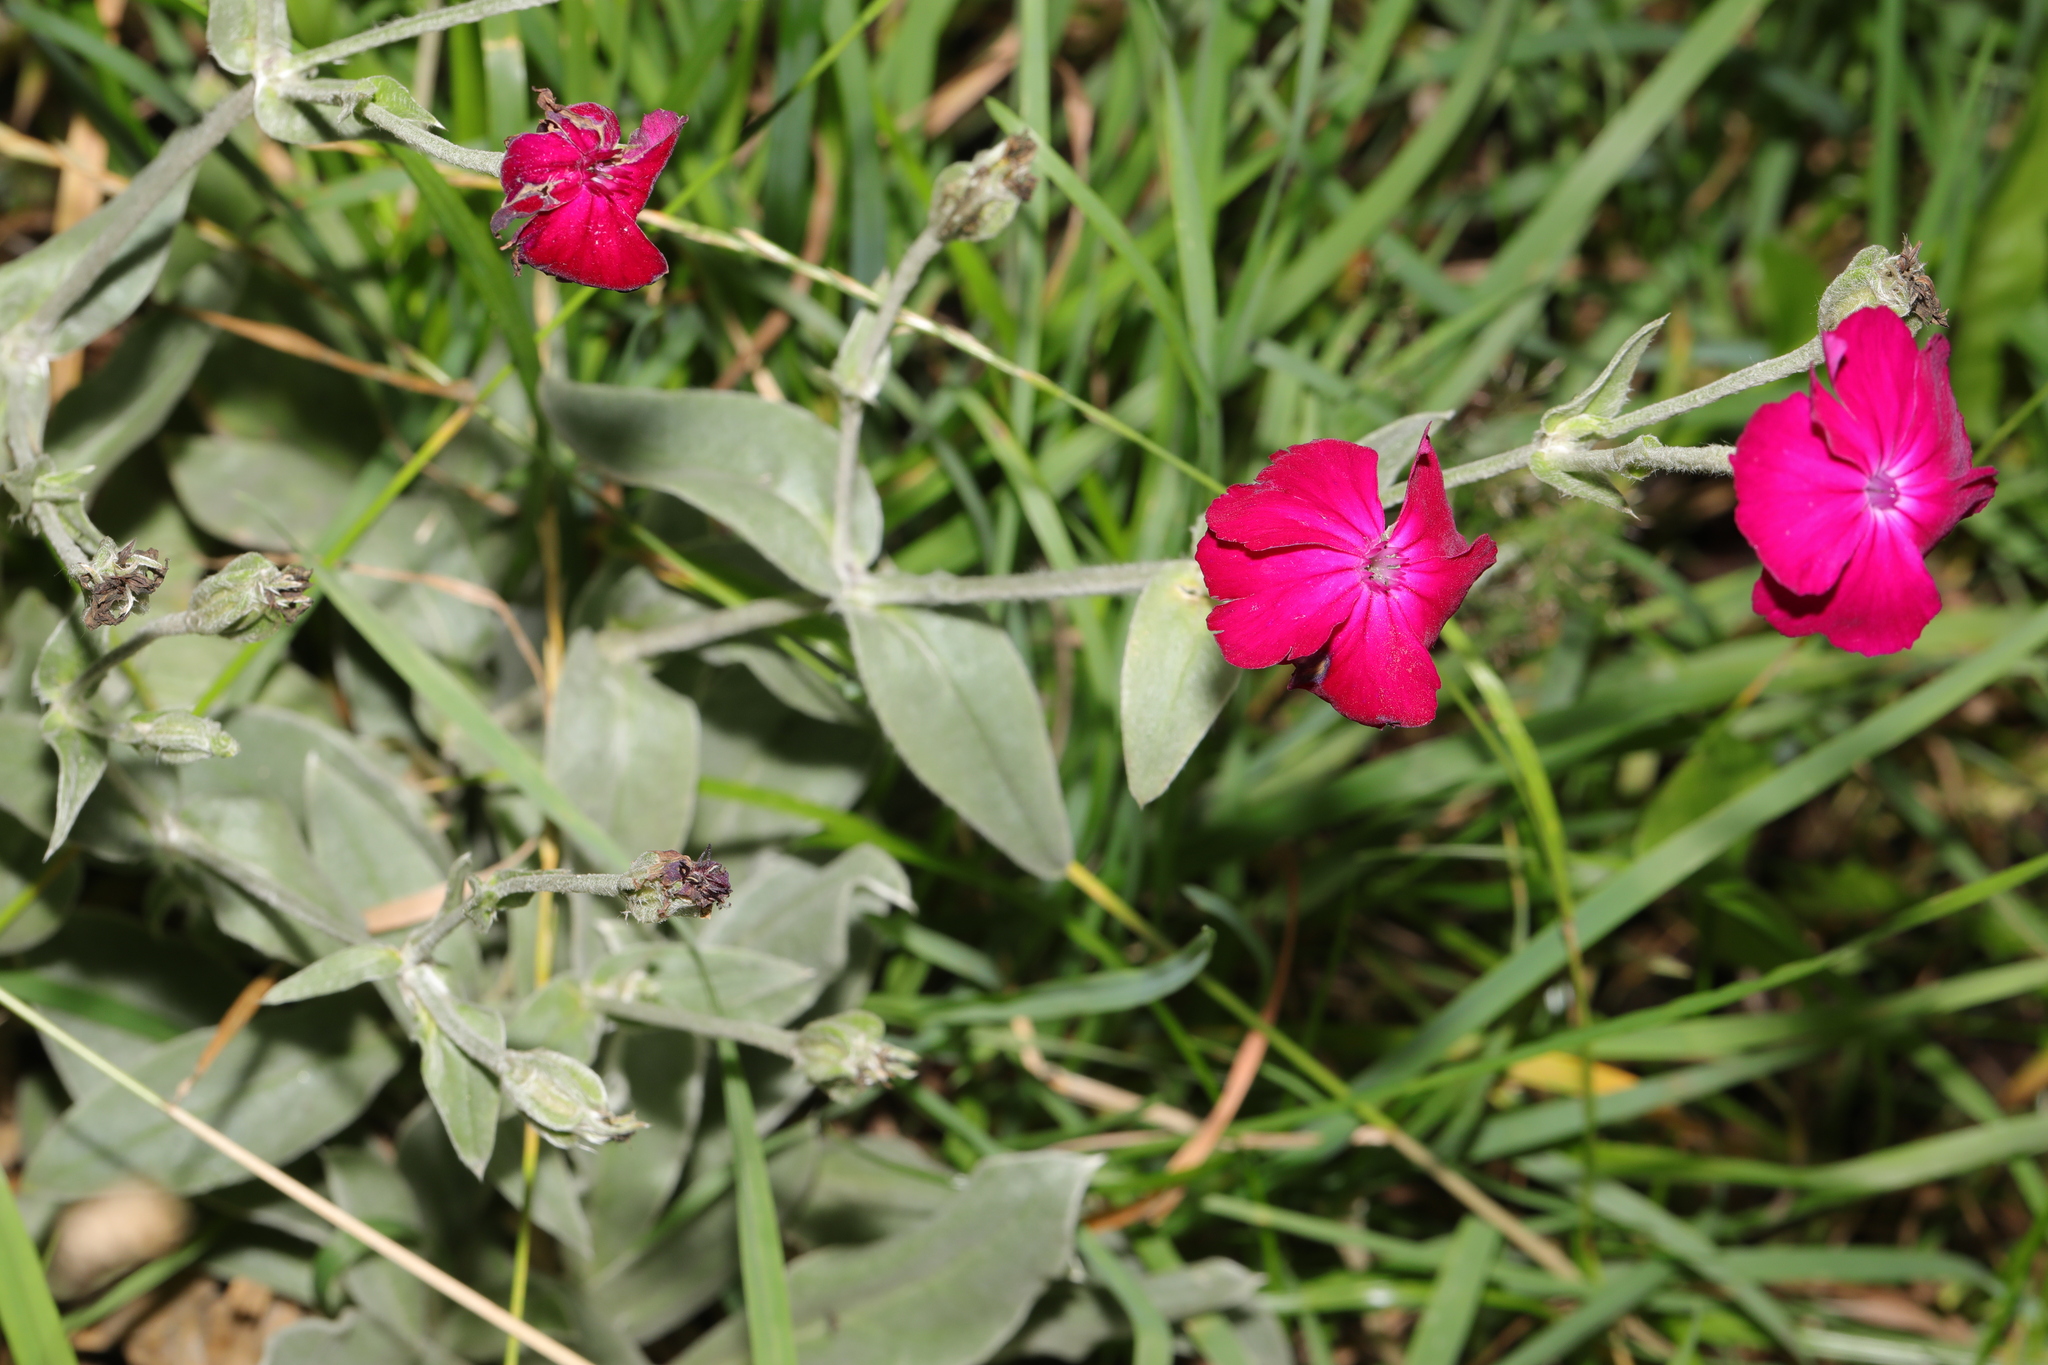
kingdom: Plantae
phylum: Tracheophyta
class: Magnoliopsida
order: Caryophyllales
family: Caryophyllaceae
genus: Silene
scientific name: Silene coronaria
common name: Rose campion
